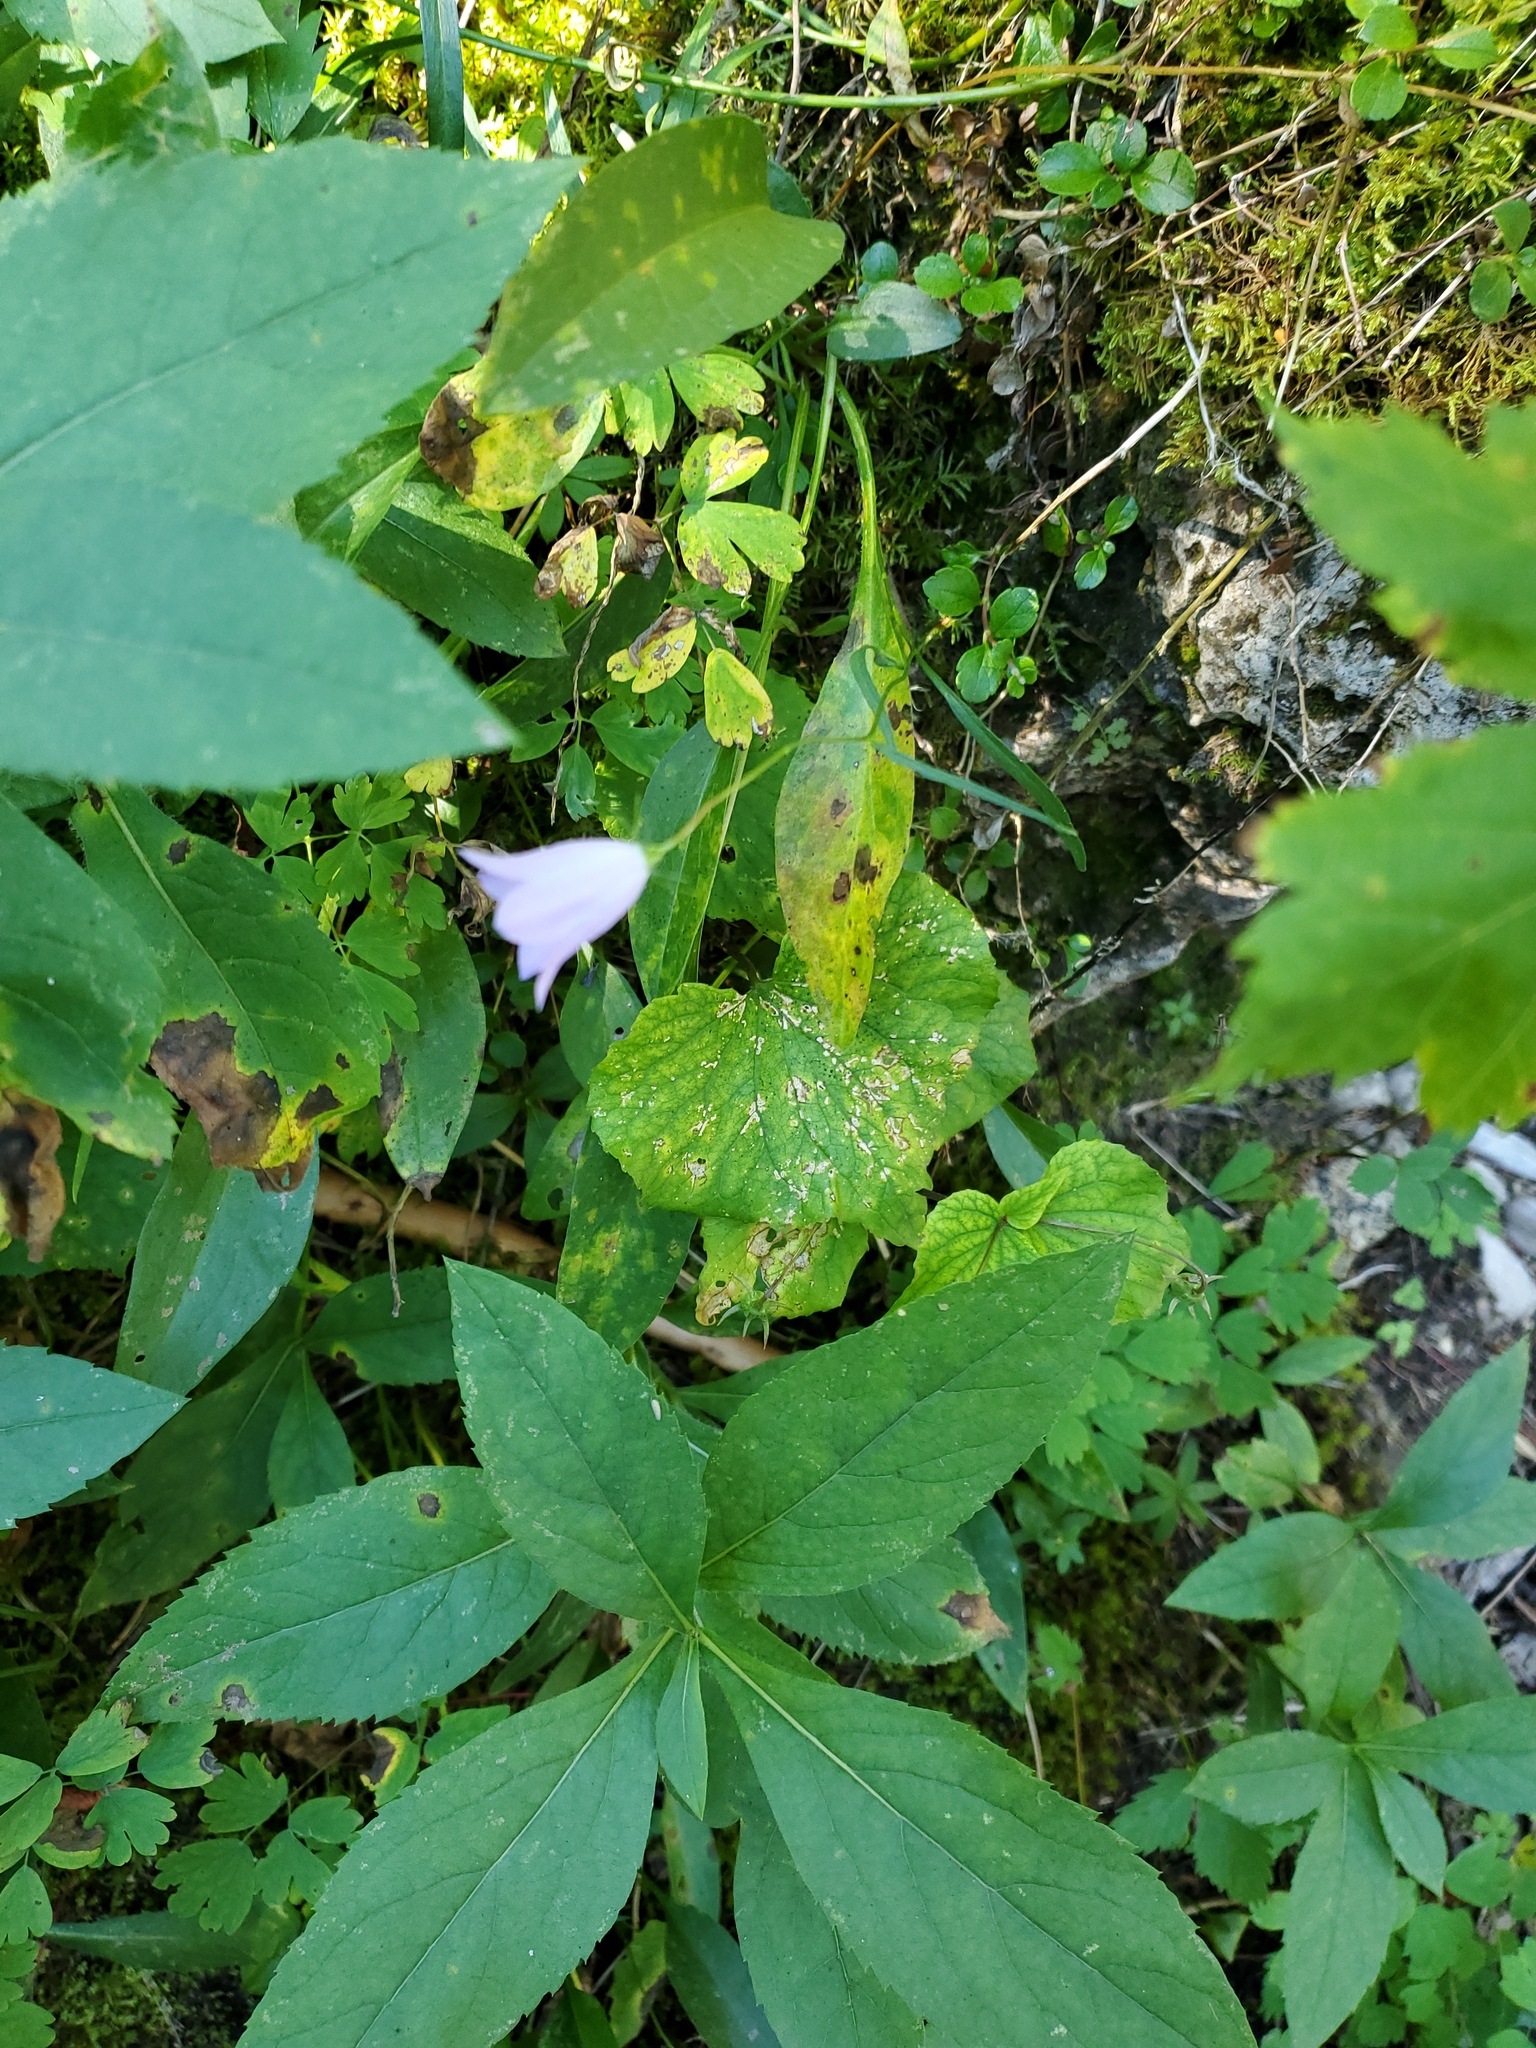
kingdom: Plantae
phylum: Tracheophyta
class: Magnoliopsida
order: Asterales
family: Campanulaceae
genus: Campanula
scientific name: Campanula petiolata
